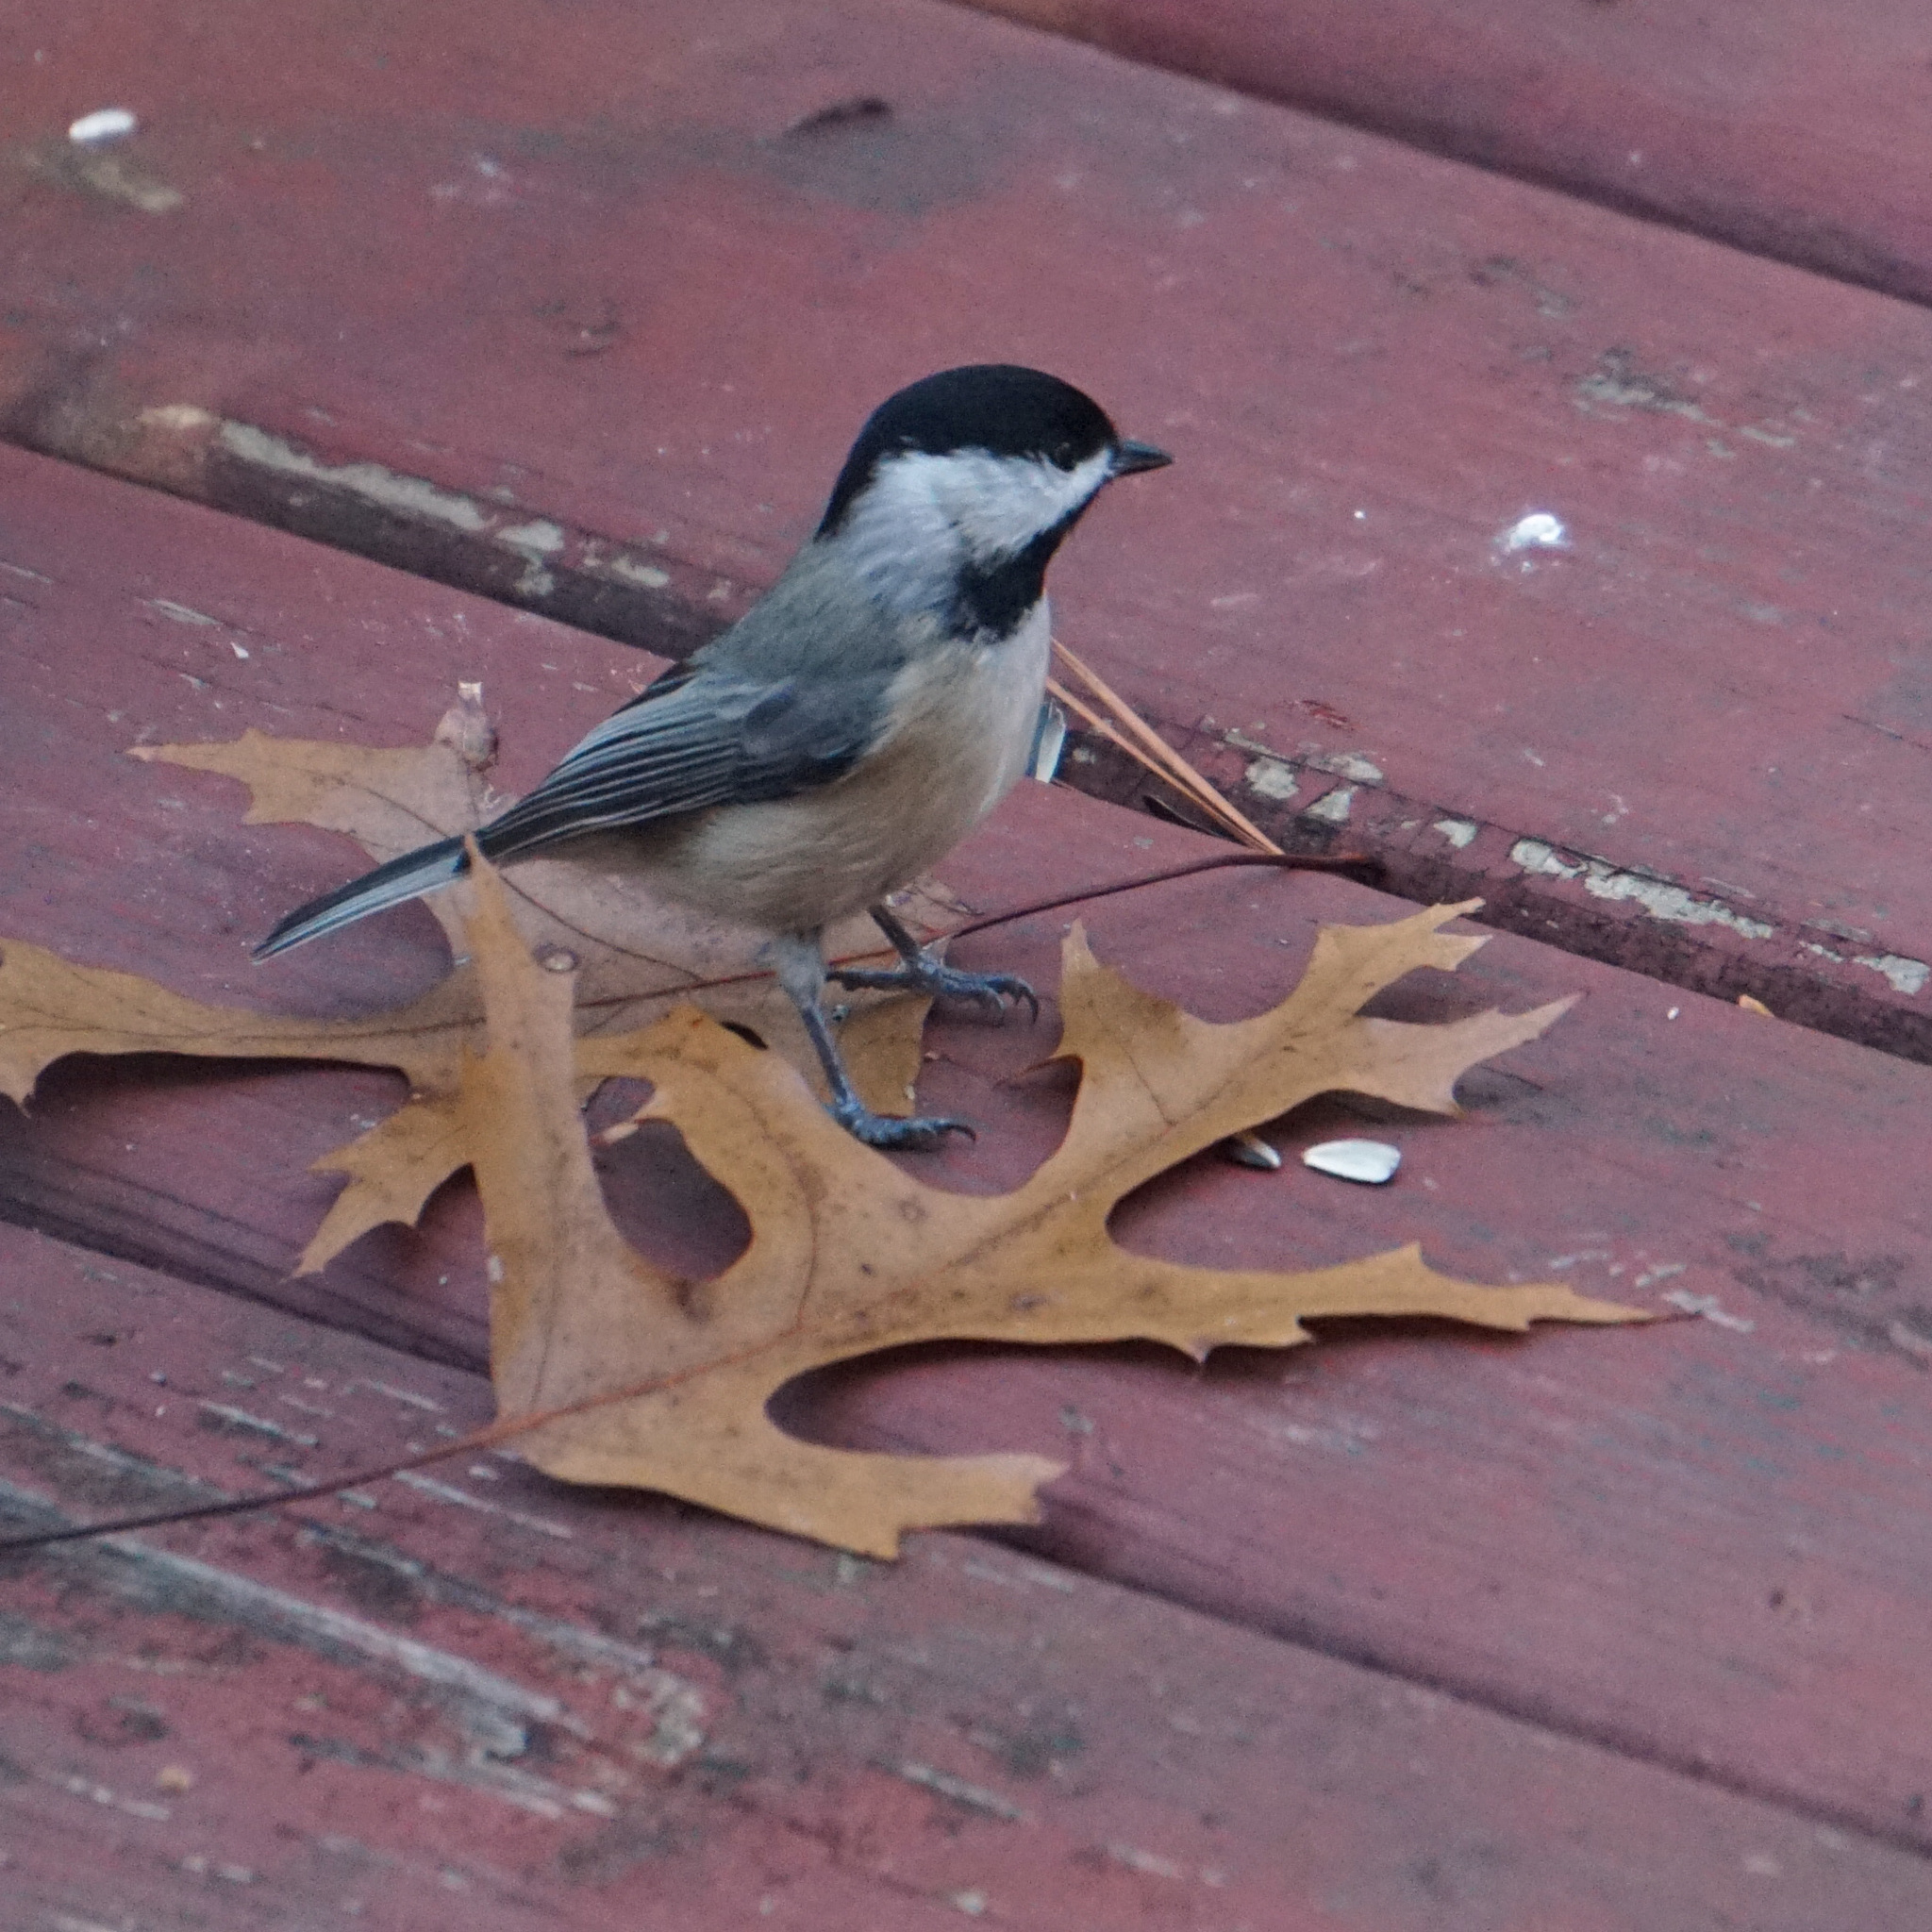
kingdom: Animalia
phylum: Chordata
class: Aves
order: Passeriformes
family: Paridae
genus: Poecile
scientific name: Poecile carolinensis
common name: Carolina chickadee
